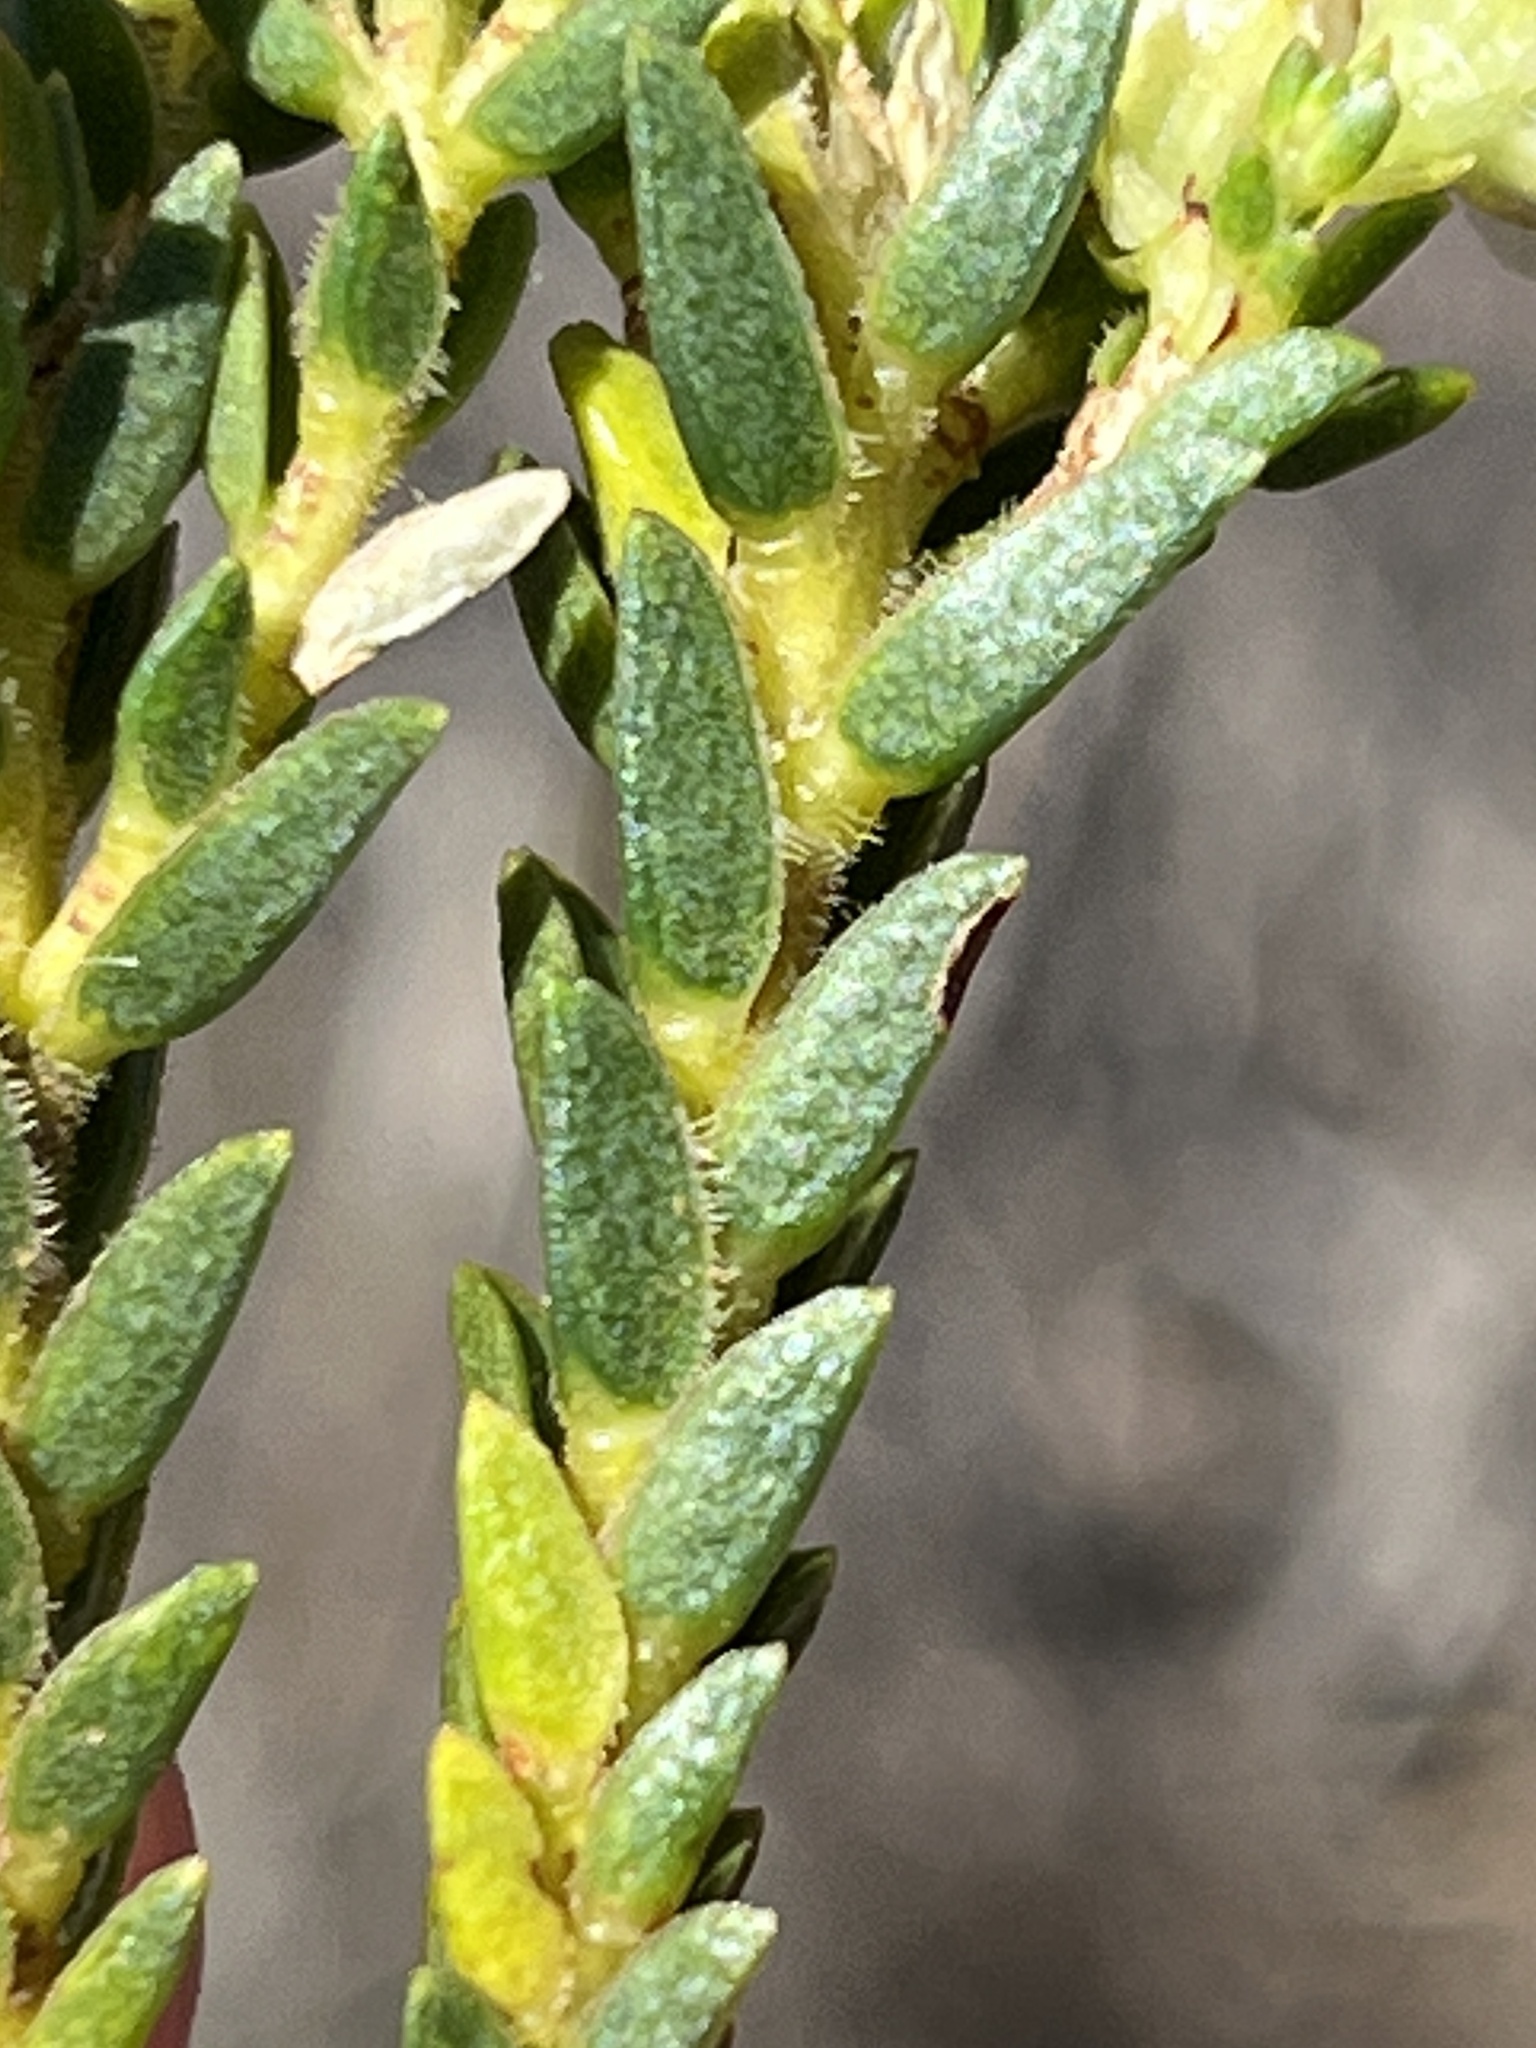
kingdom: Plantae
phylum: Tracheophyta
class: Magnoliopsida
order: Sapindales
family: Rutaceae
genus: Diosma
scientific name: Diosma oppositifolia
